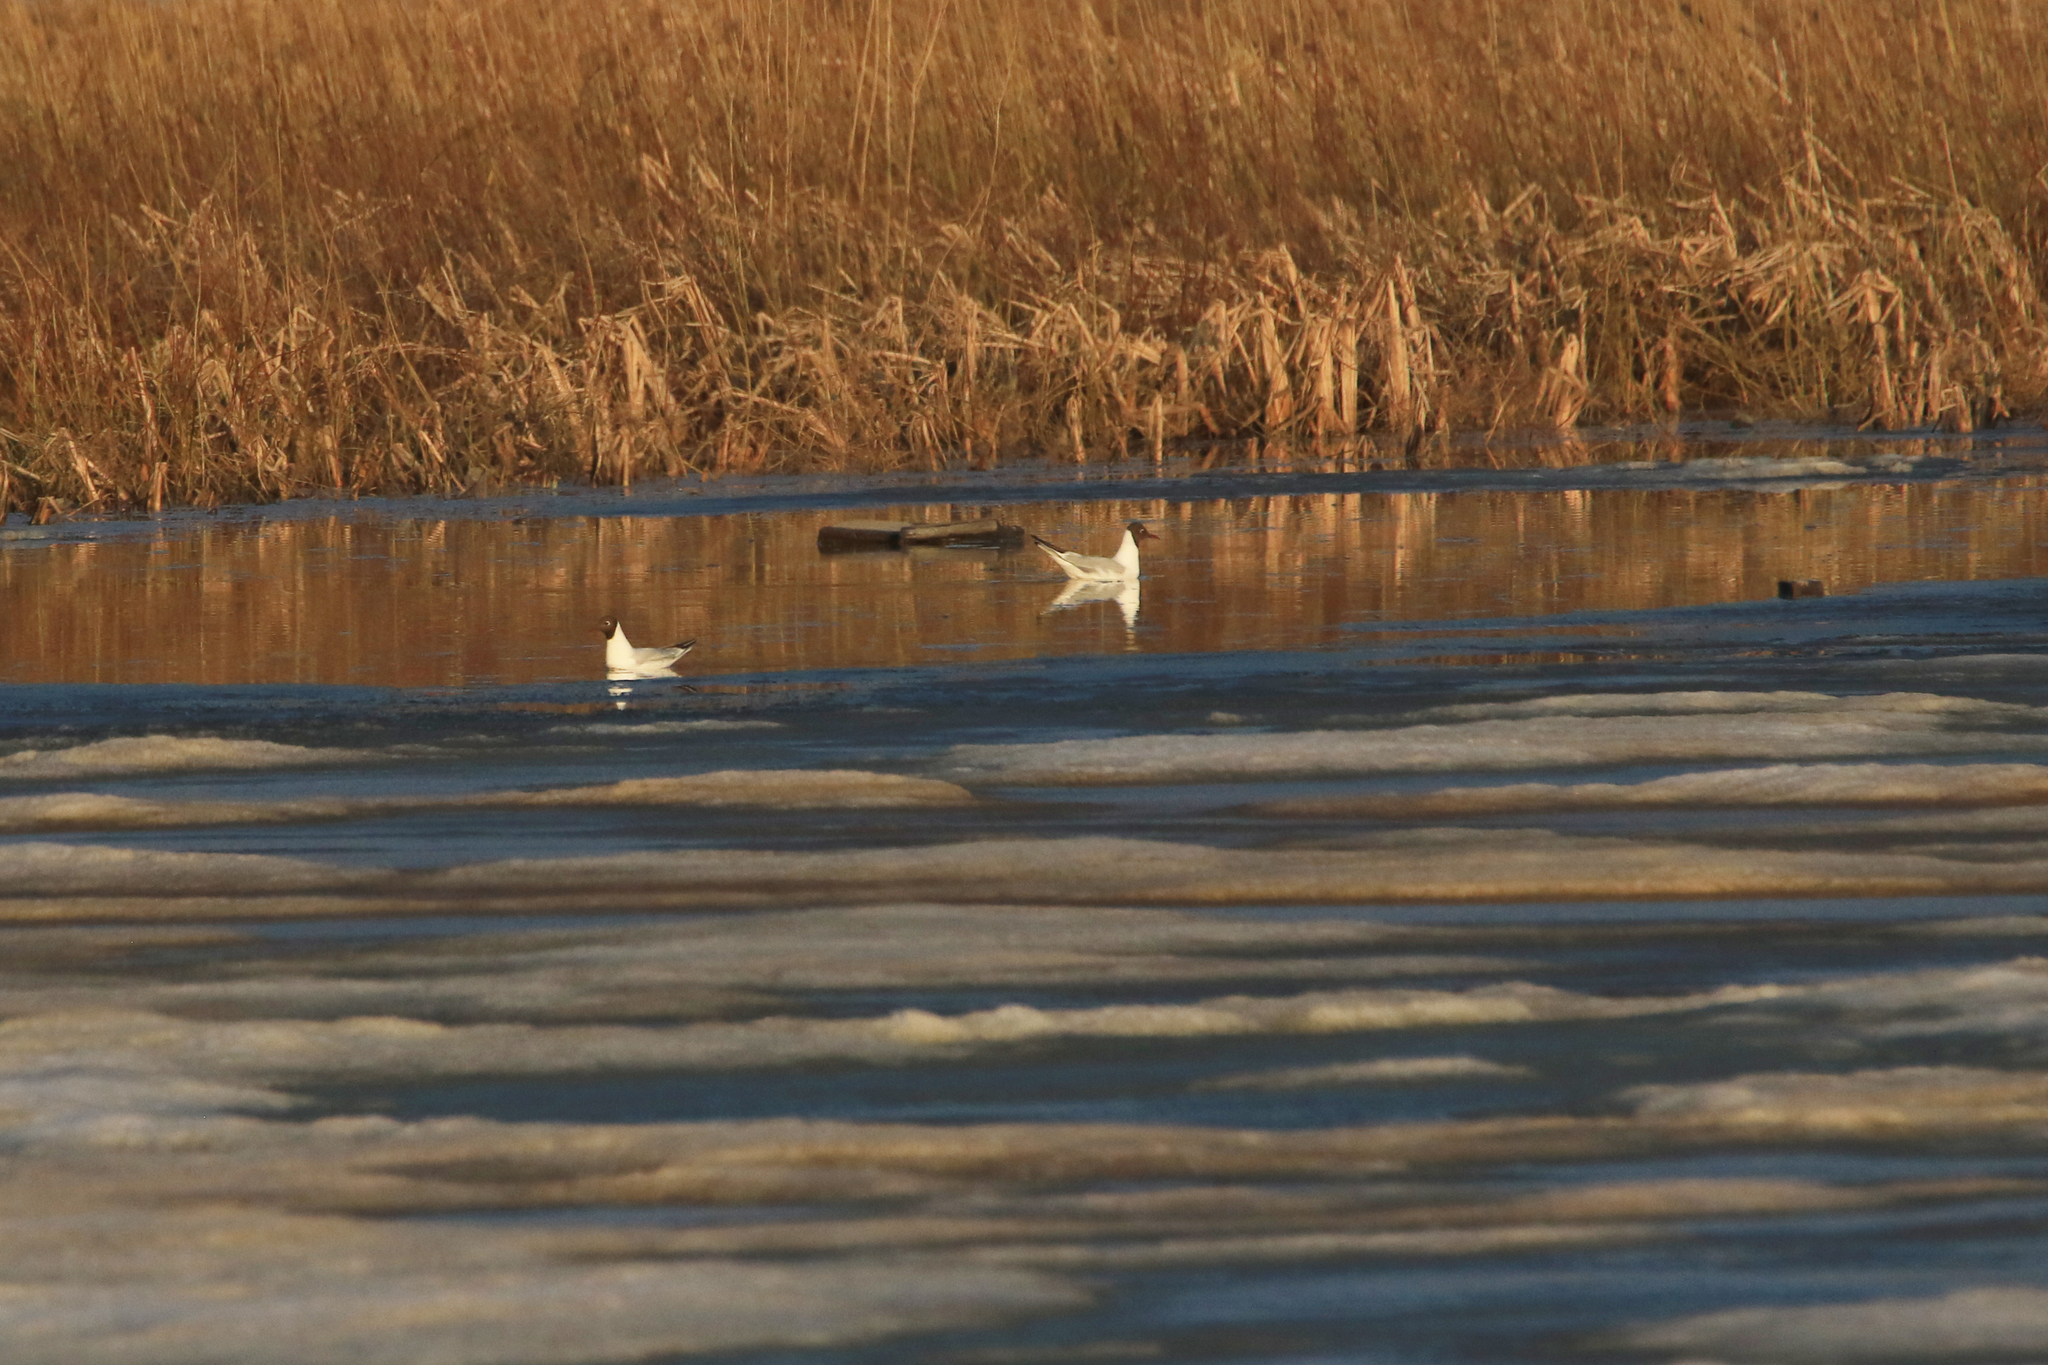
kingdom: Animalia
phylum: Chordata
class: Aves
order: Charadriiformes
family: Laridae
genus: Chroicocephalus
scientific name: Chroicocephalus ridibundus
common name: Black-headed gull
